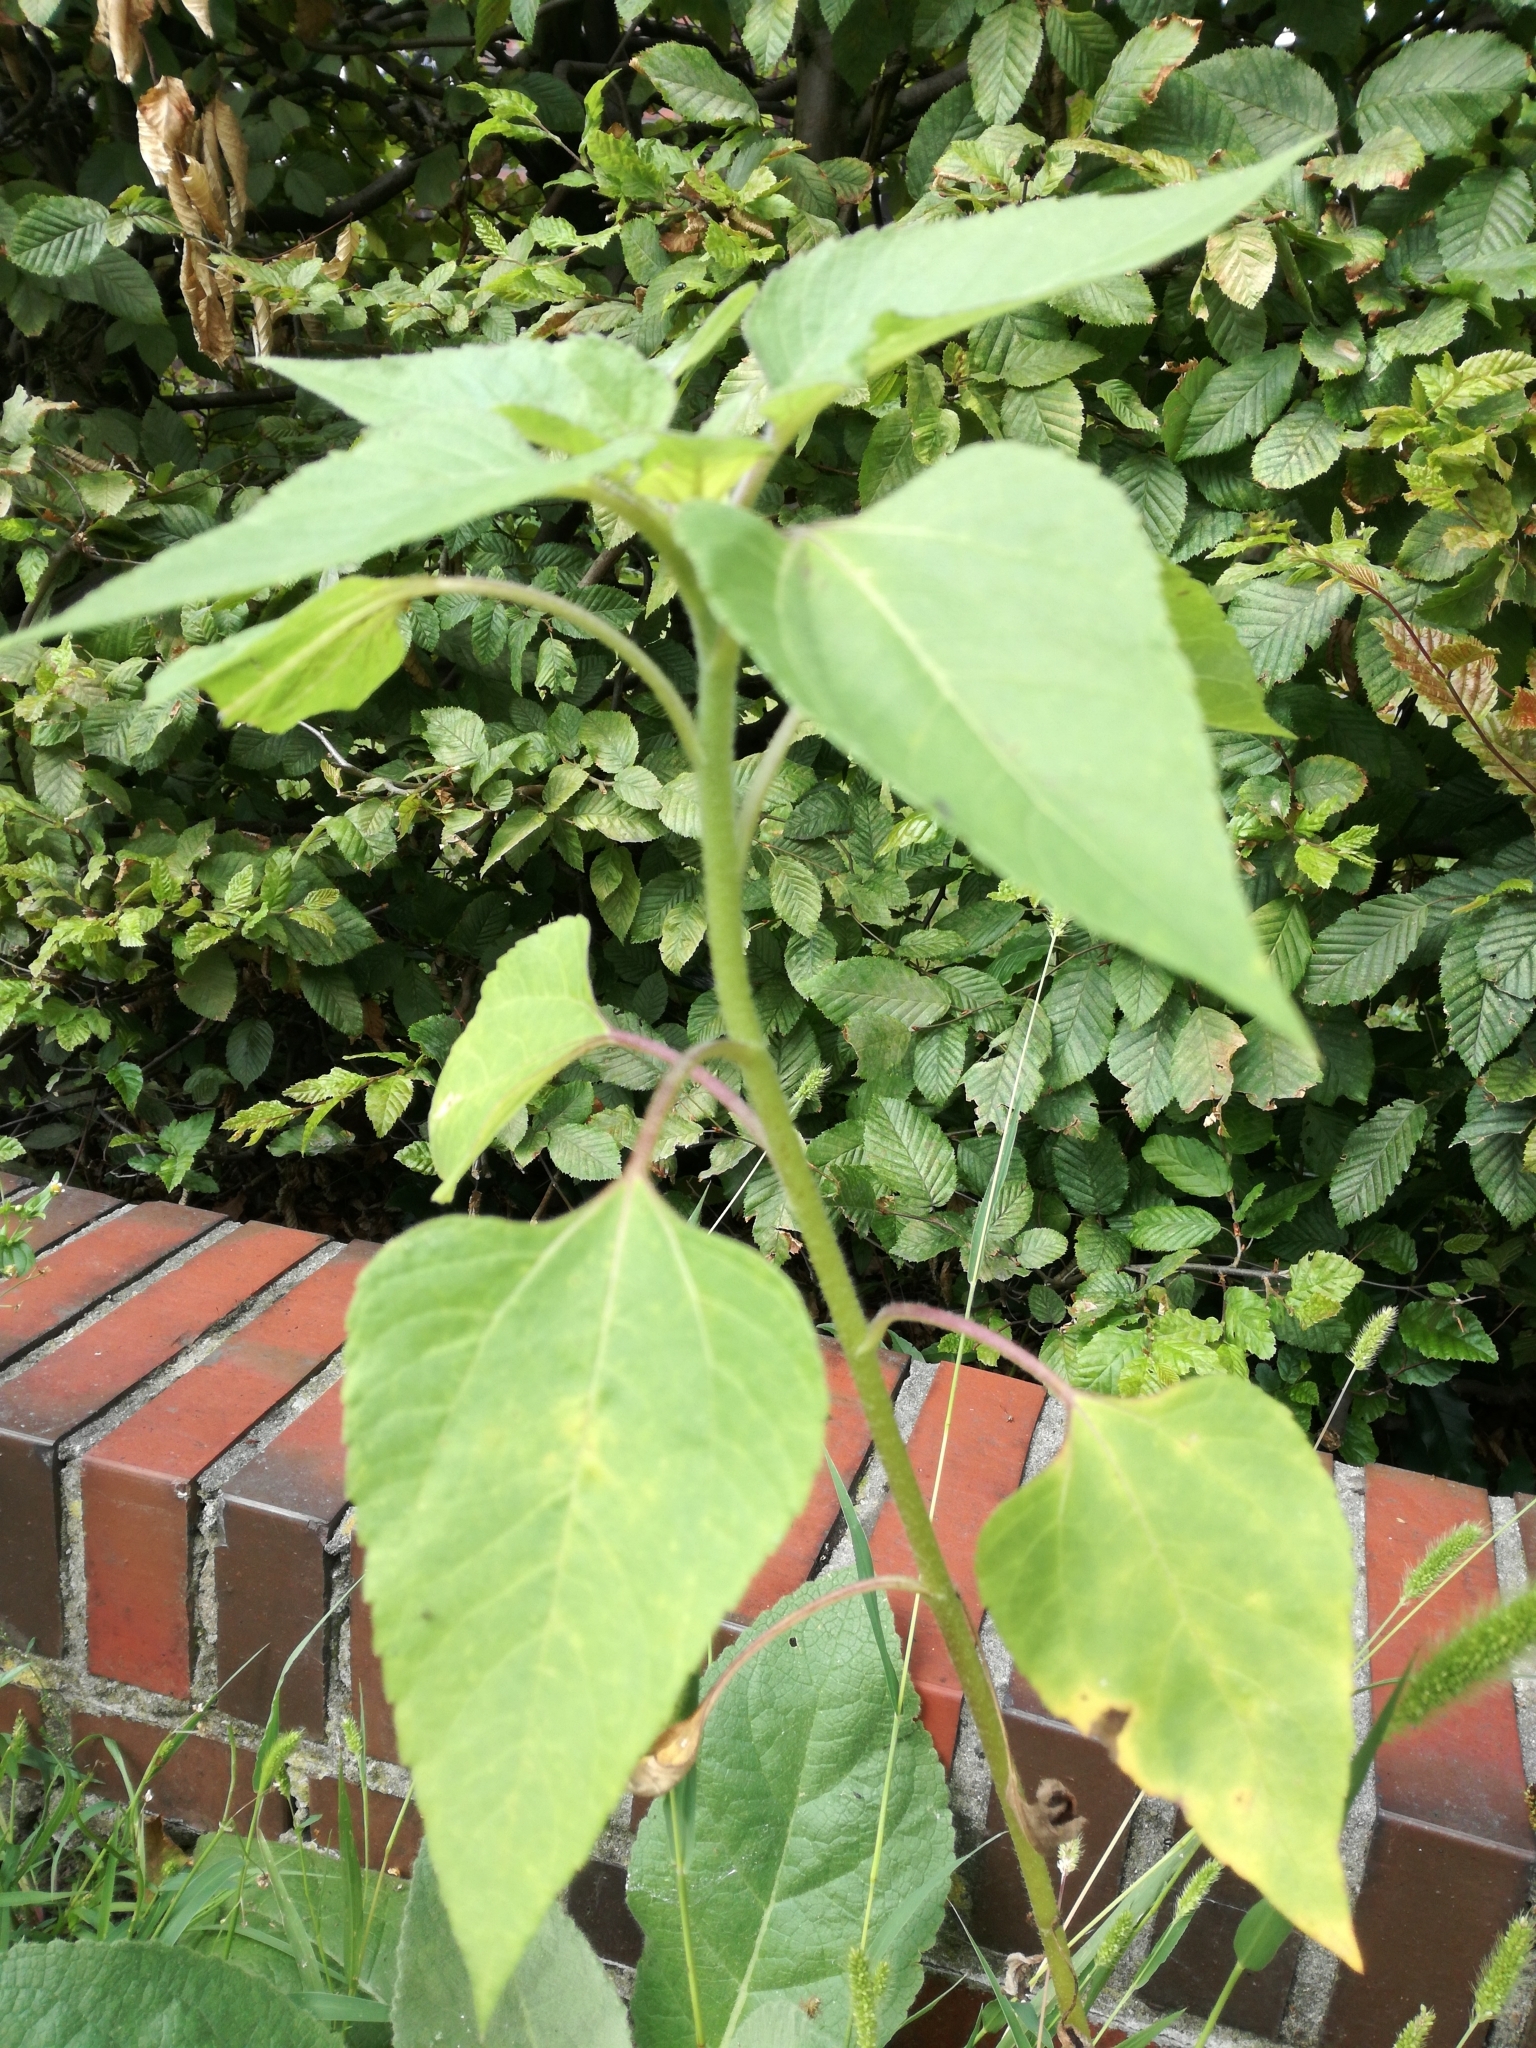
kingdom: Plantae
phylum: Tracheophyta
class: Magnoliopsida
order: Asterales
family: Asteraceae
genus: Helianthus
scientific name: Helianthus annuus
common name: Sunflower
